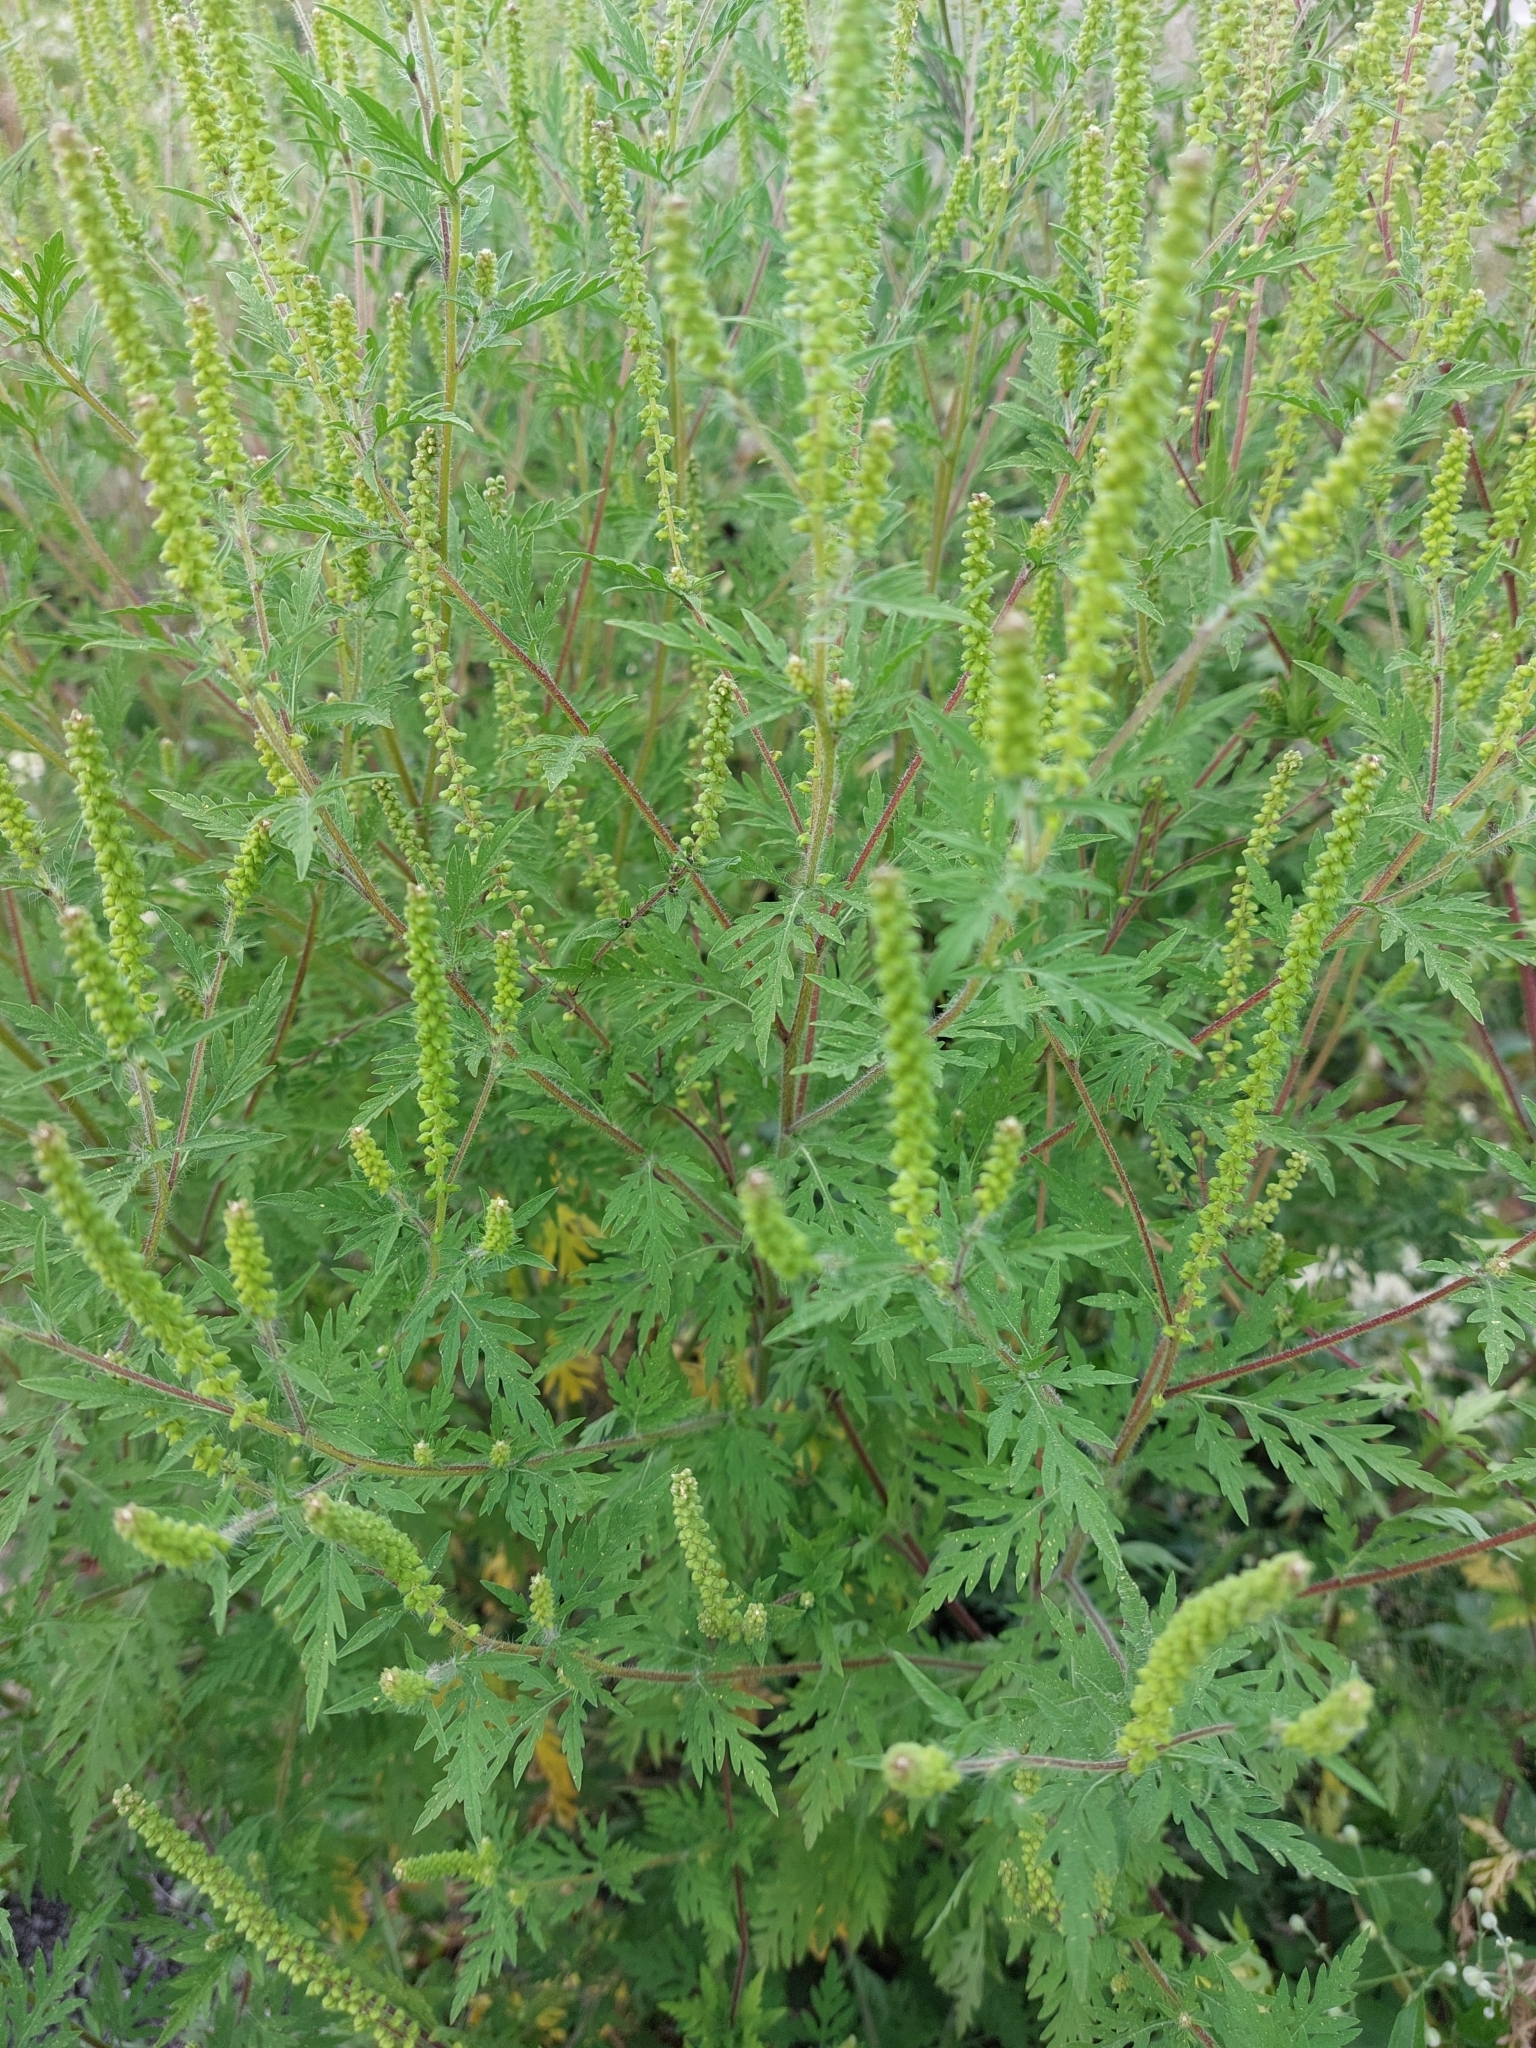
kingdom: Plantae
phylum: Tracheophyta
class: Magnoliopsida
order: Asterales
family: Asteraceae
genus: Ambrosia
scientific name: Ambrosia artemisiifolia
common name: Annual ragweed
